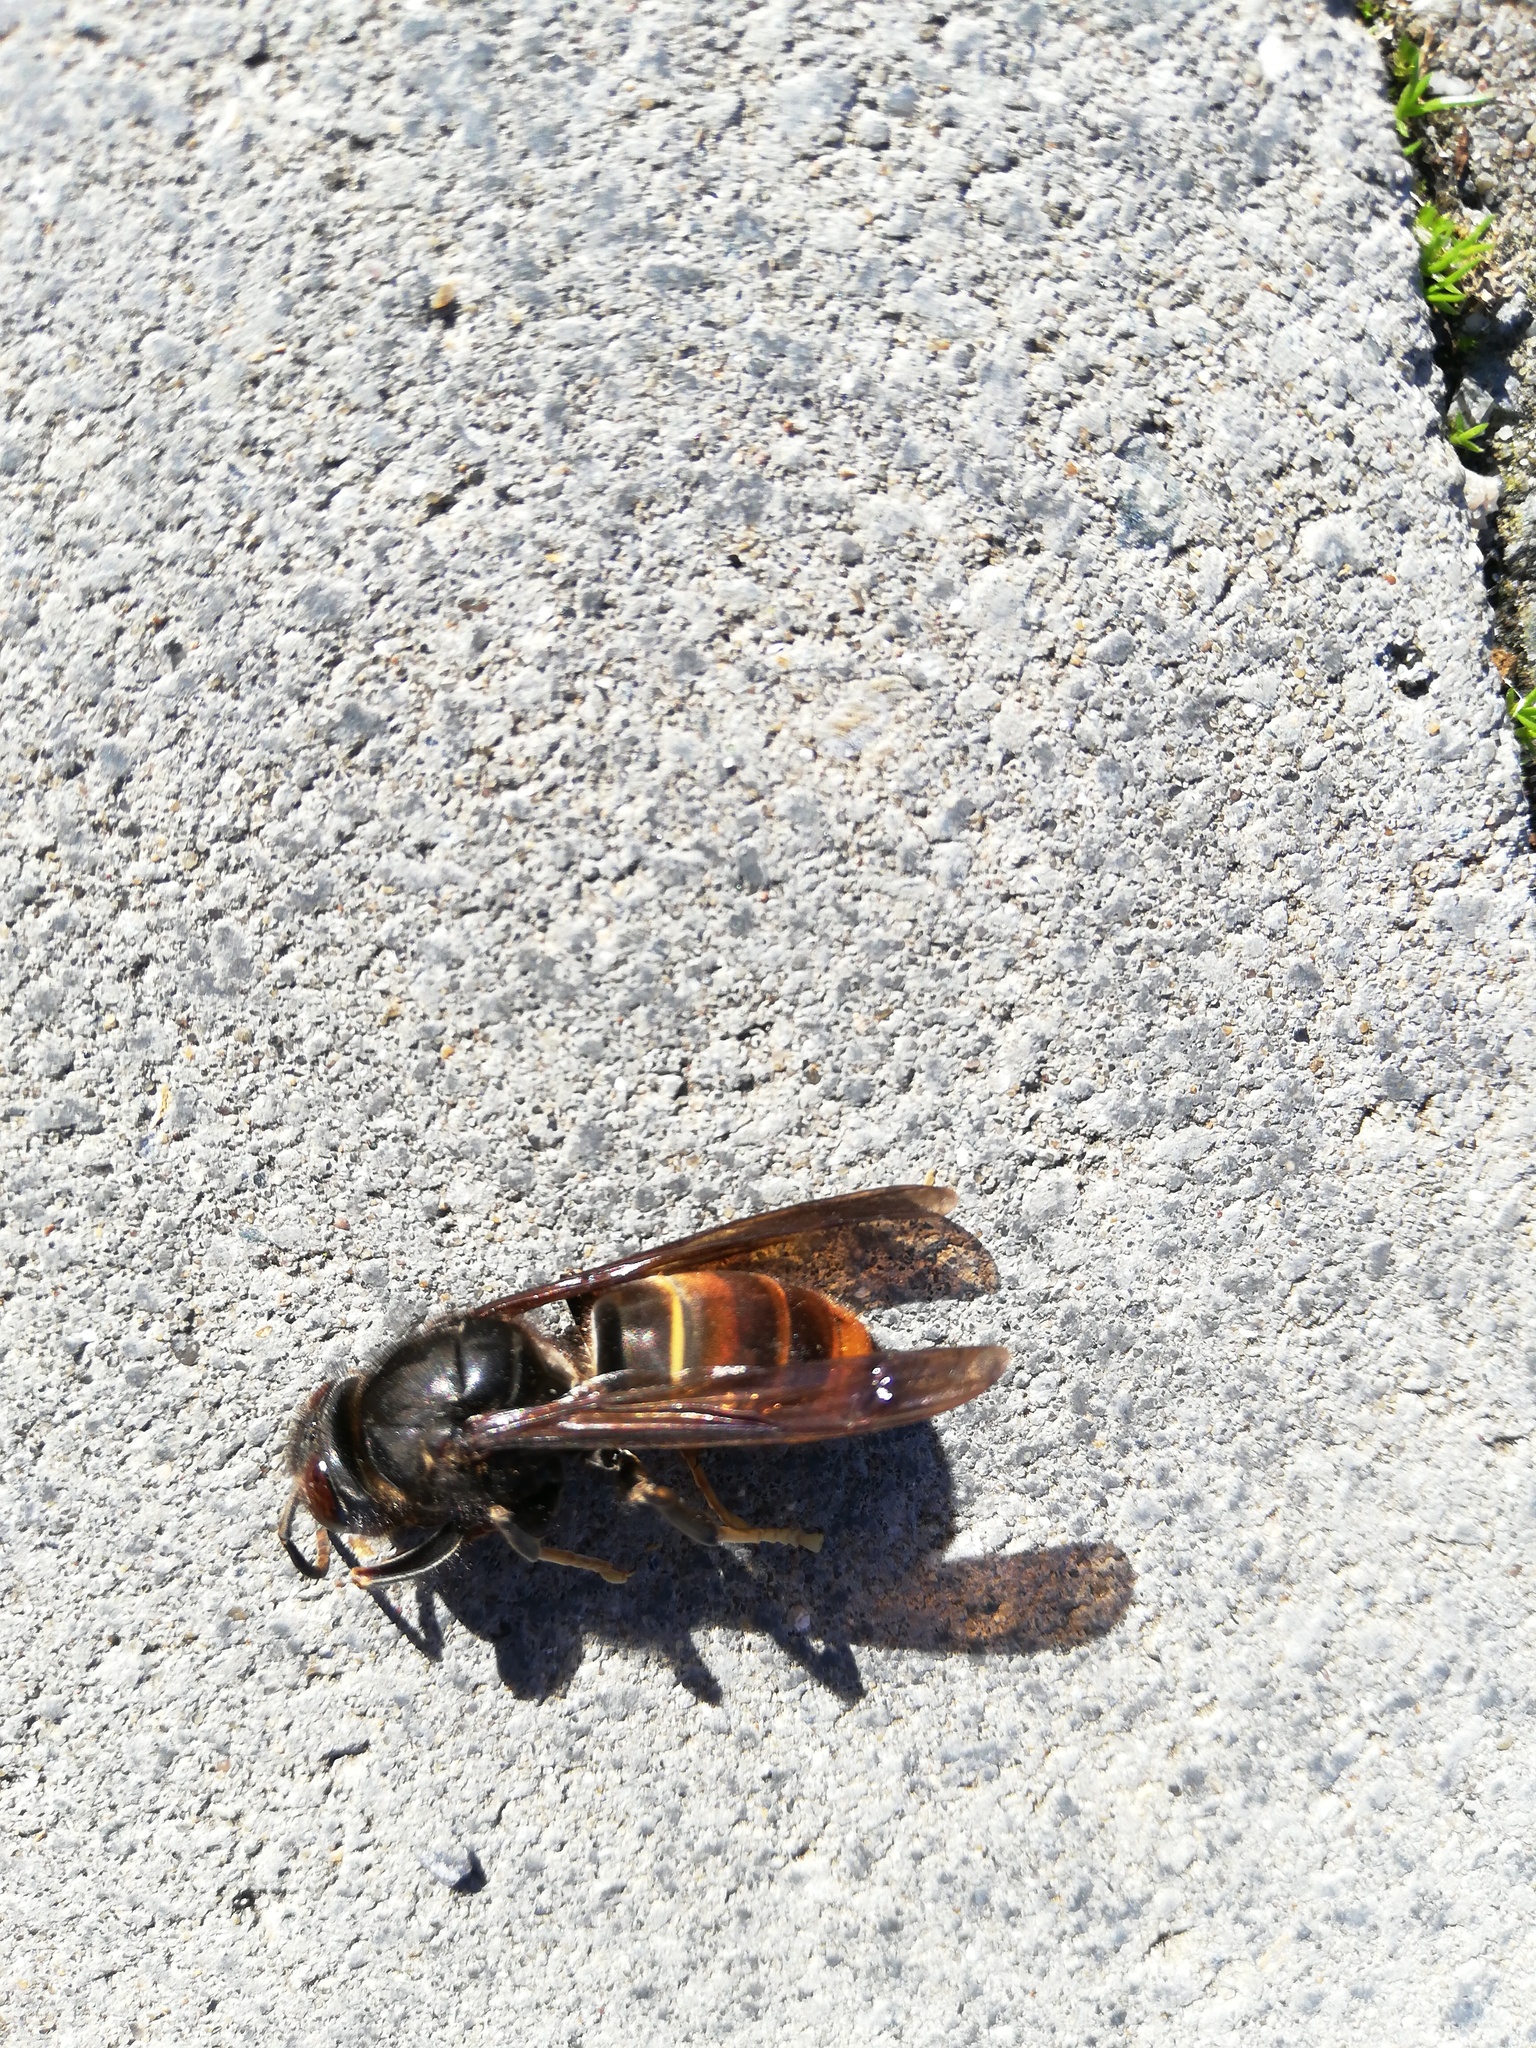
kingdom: Animalia
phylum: Arthropoda
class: Insecta
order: Hymenoptera
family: Vespidae
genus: Vespa
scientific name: Vespa velutina
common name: Asian hornet
